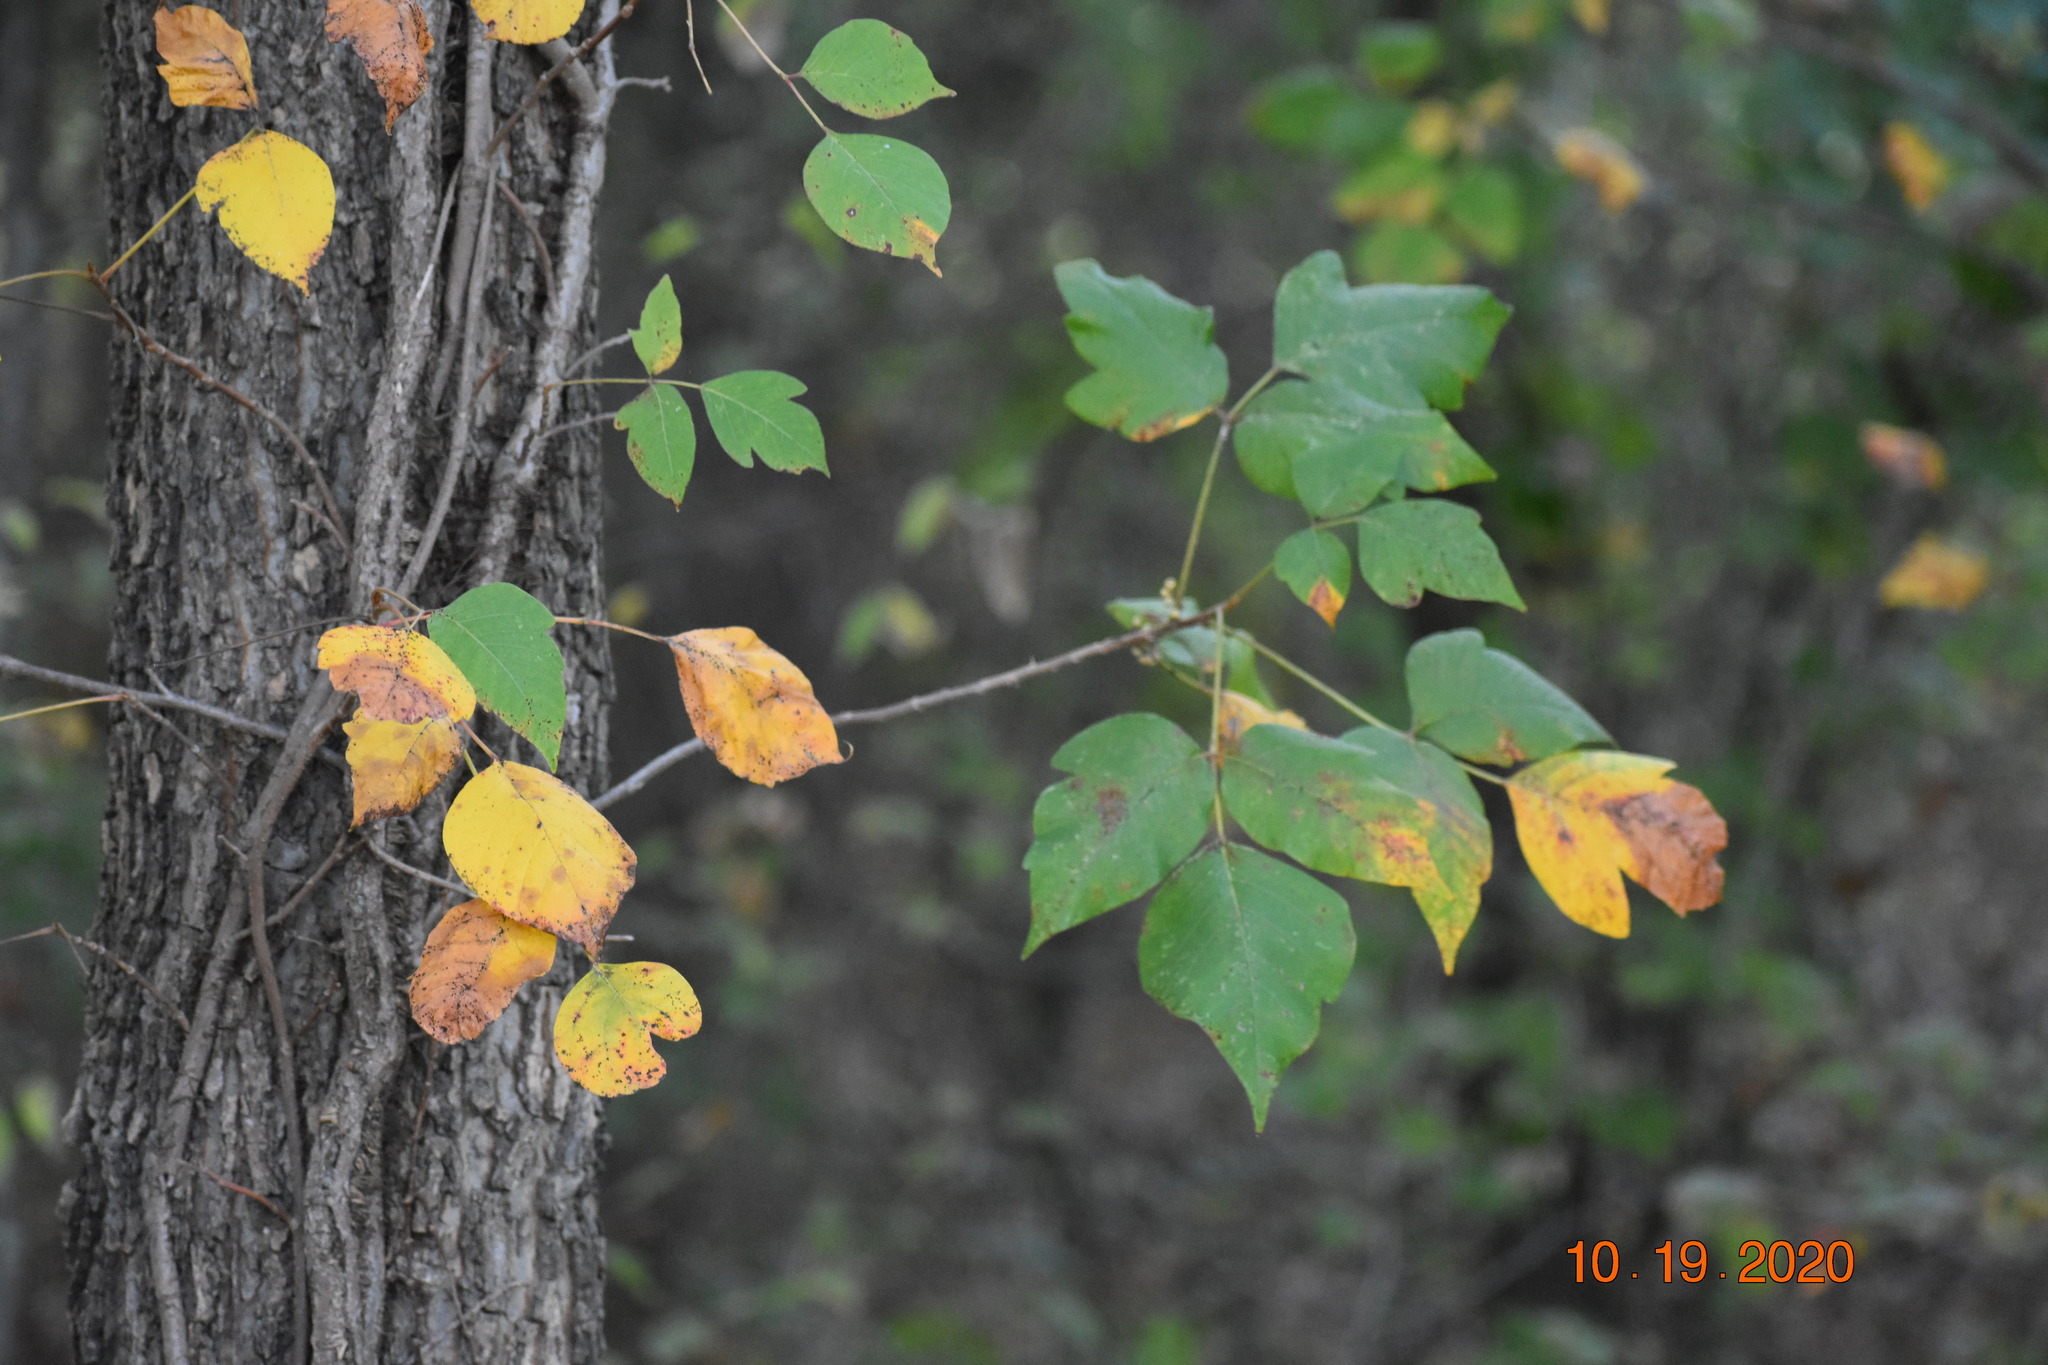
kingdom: Plantae
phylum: Tracheophyta
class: Magnoliopsida
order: Sapindales
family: Anacardiaceae
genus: Toxicodendron
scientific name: Toxicodendron radicans
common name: Poison ivy
